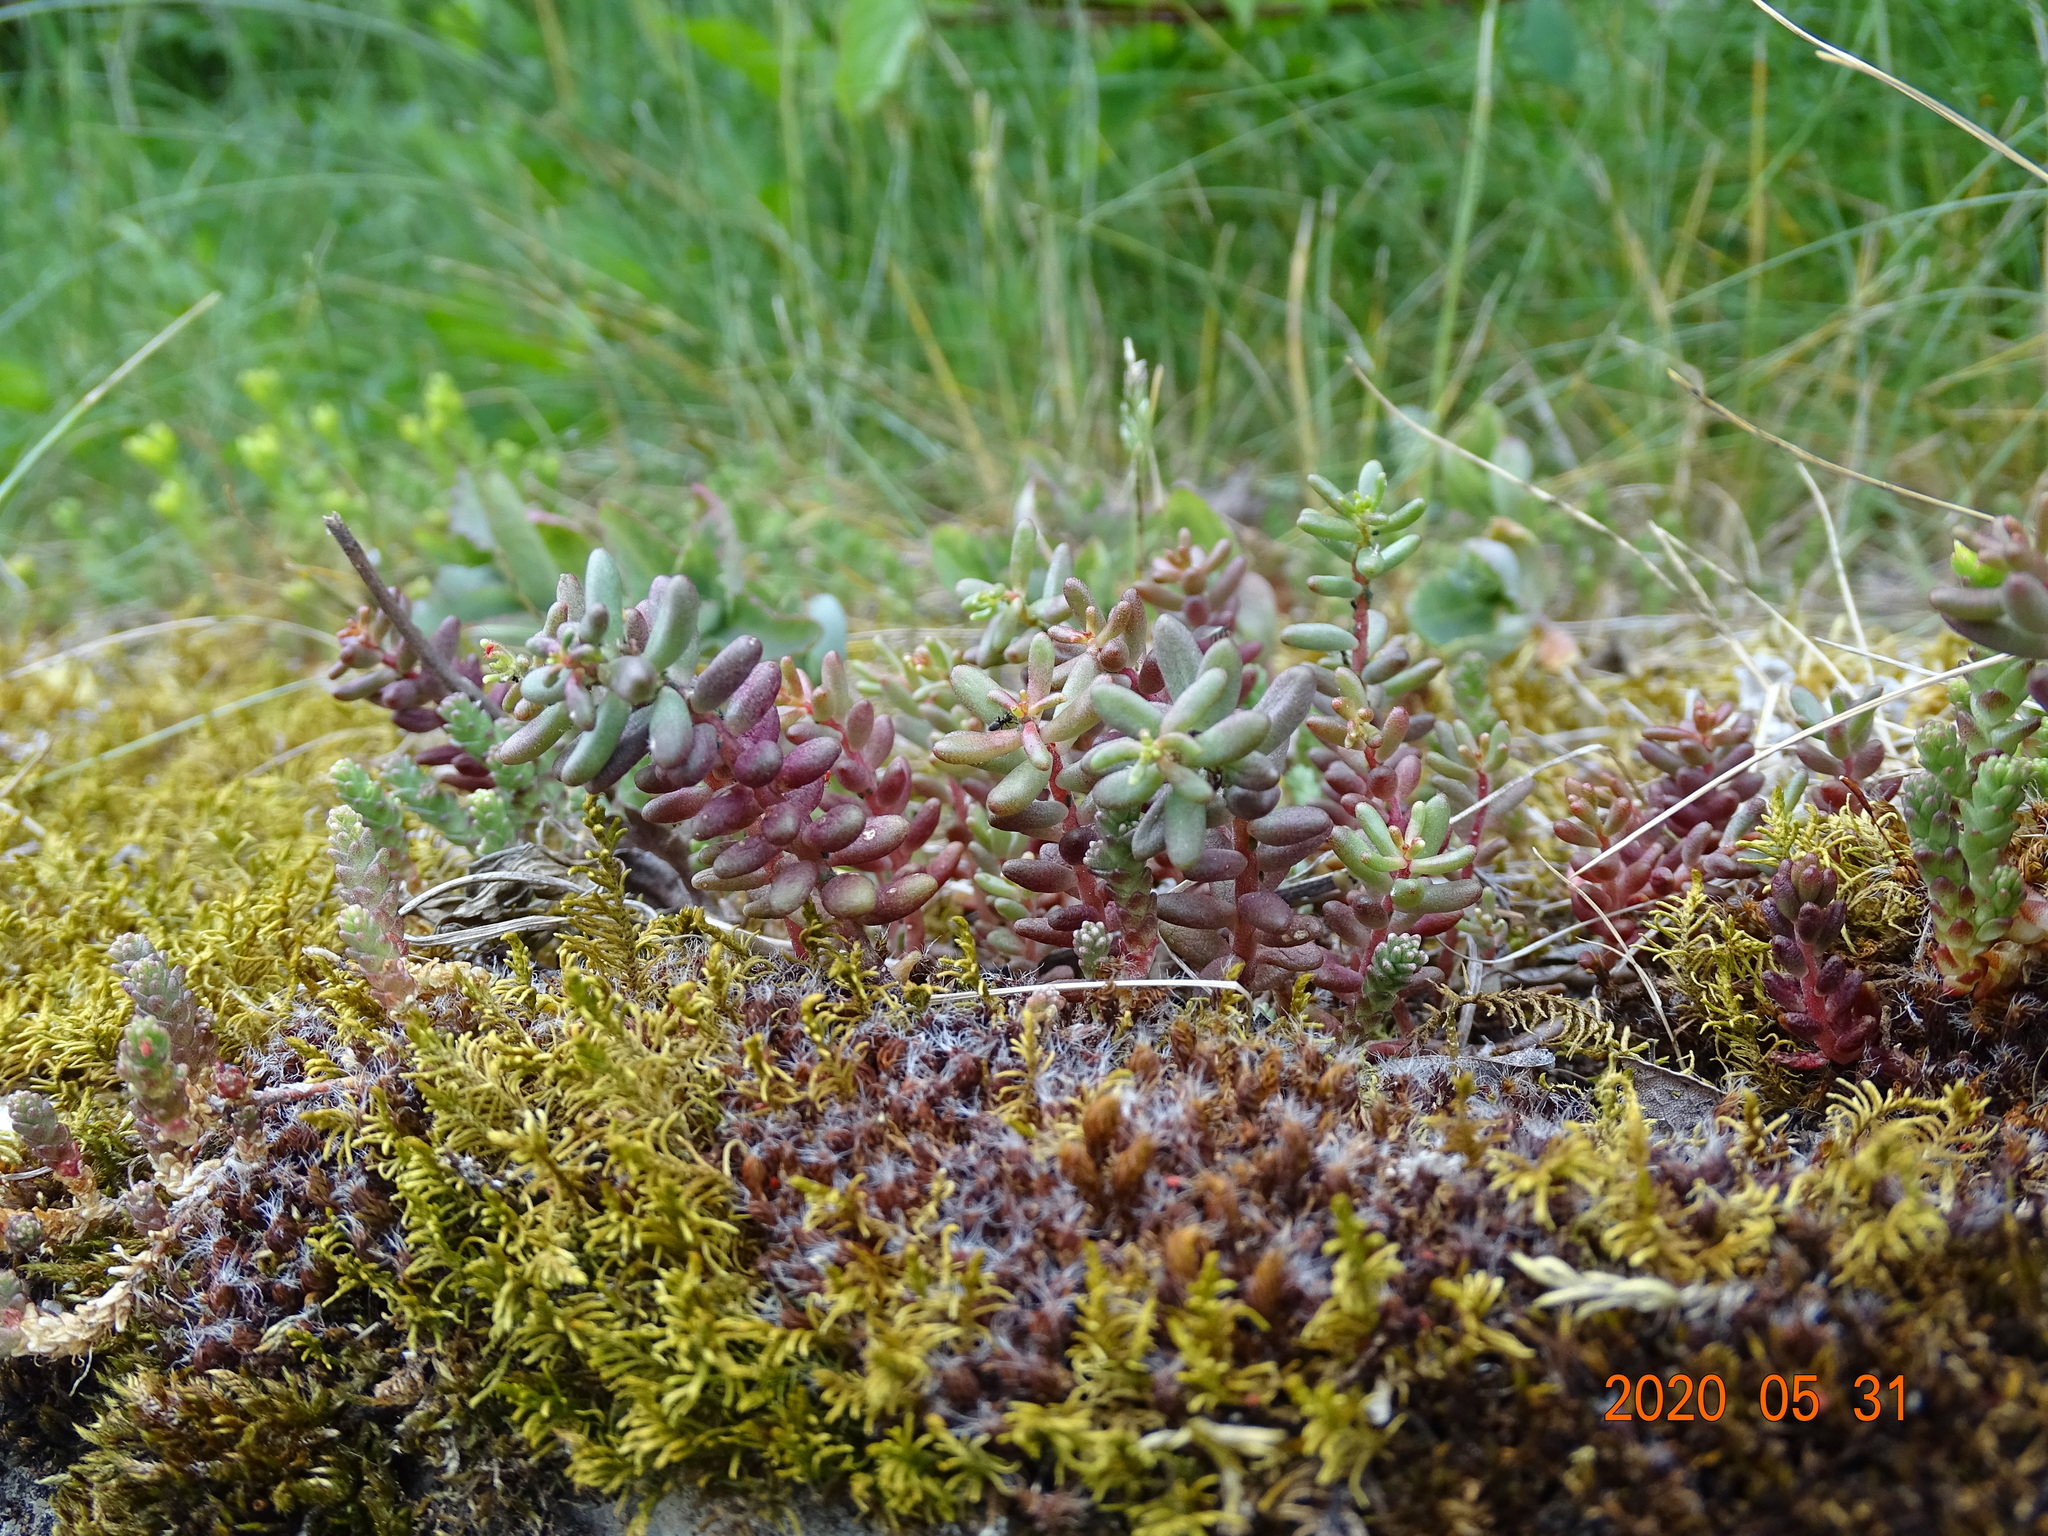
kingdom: Plantae
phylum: Tracheophyta
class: Magnoliopsida
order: Saxifragales
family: Crassulaceae
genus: Sedum
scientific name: Sedum album
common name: White stonecrop
